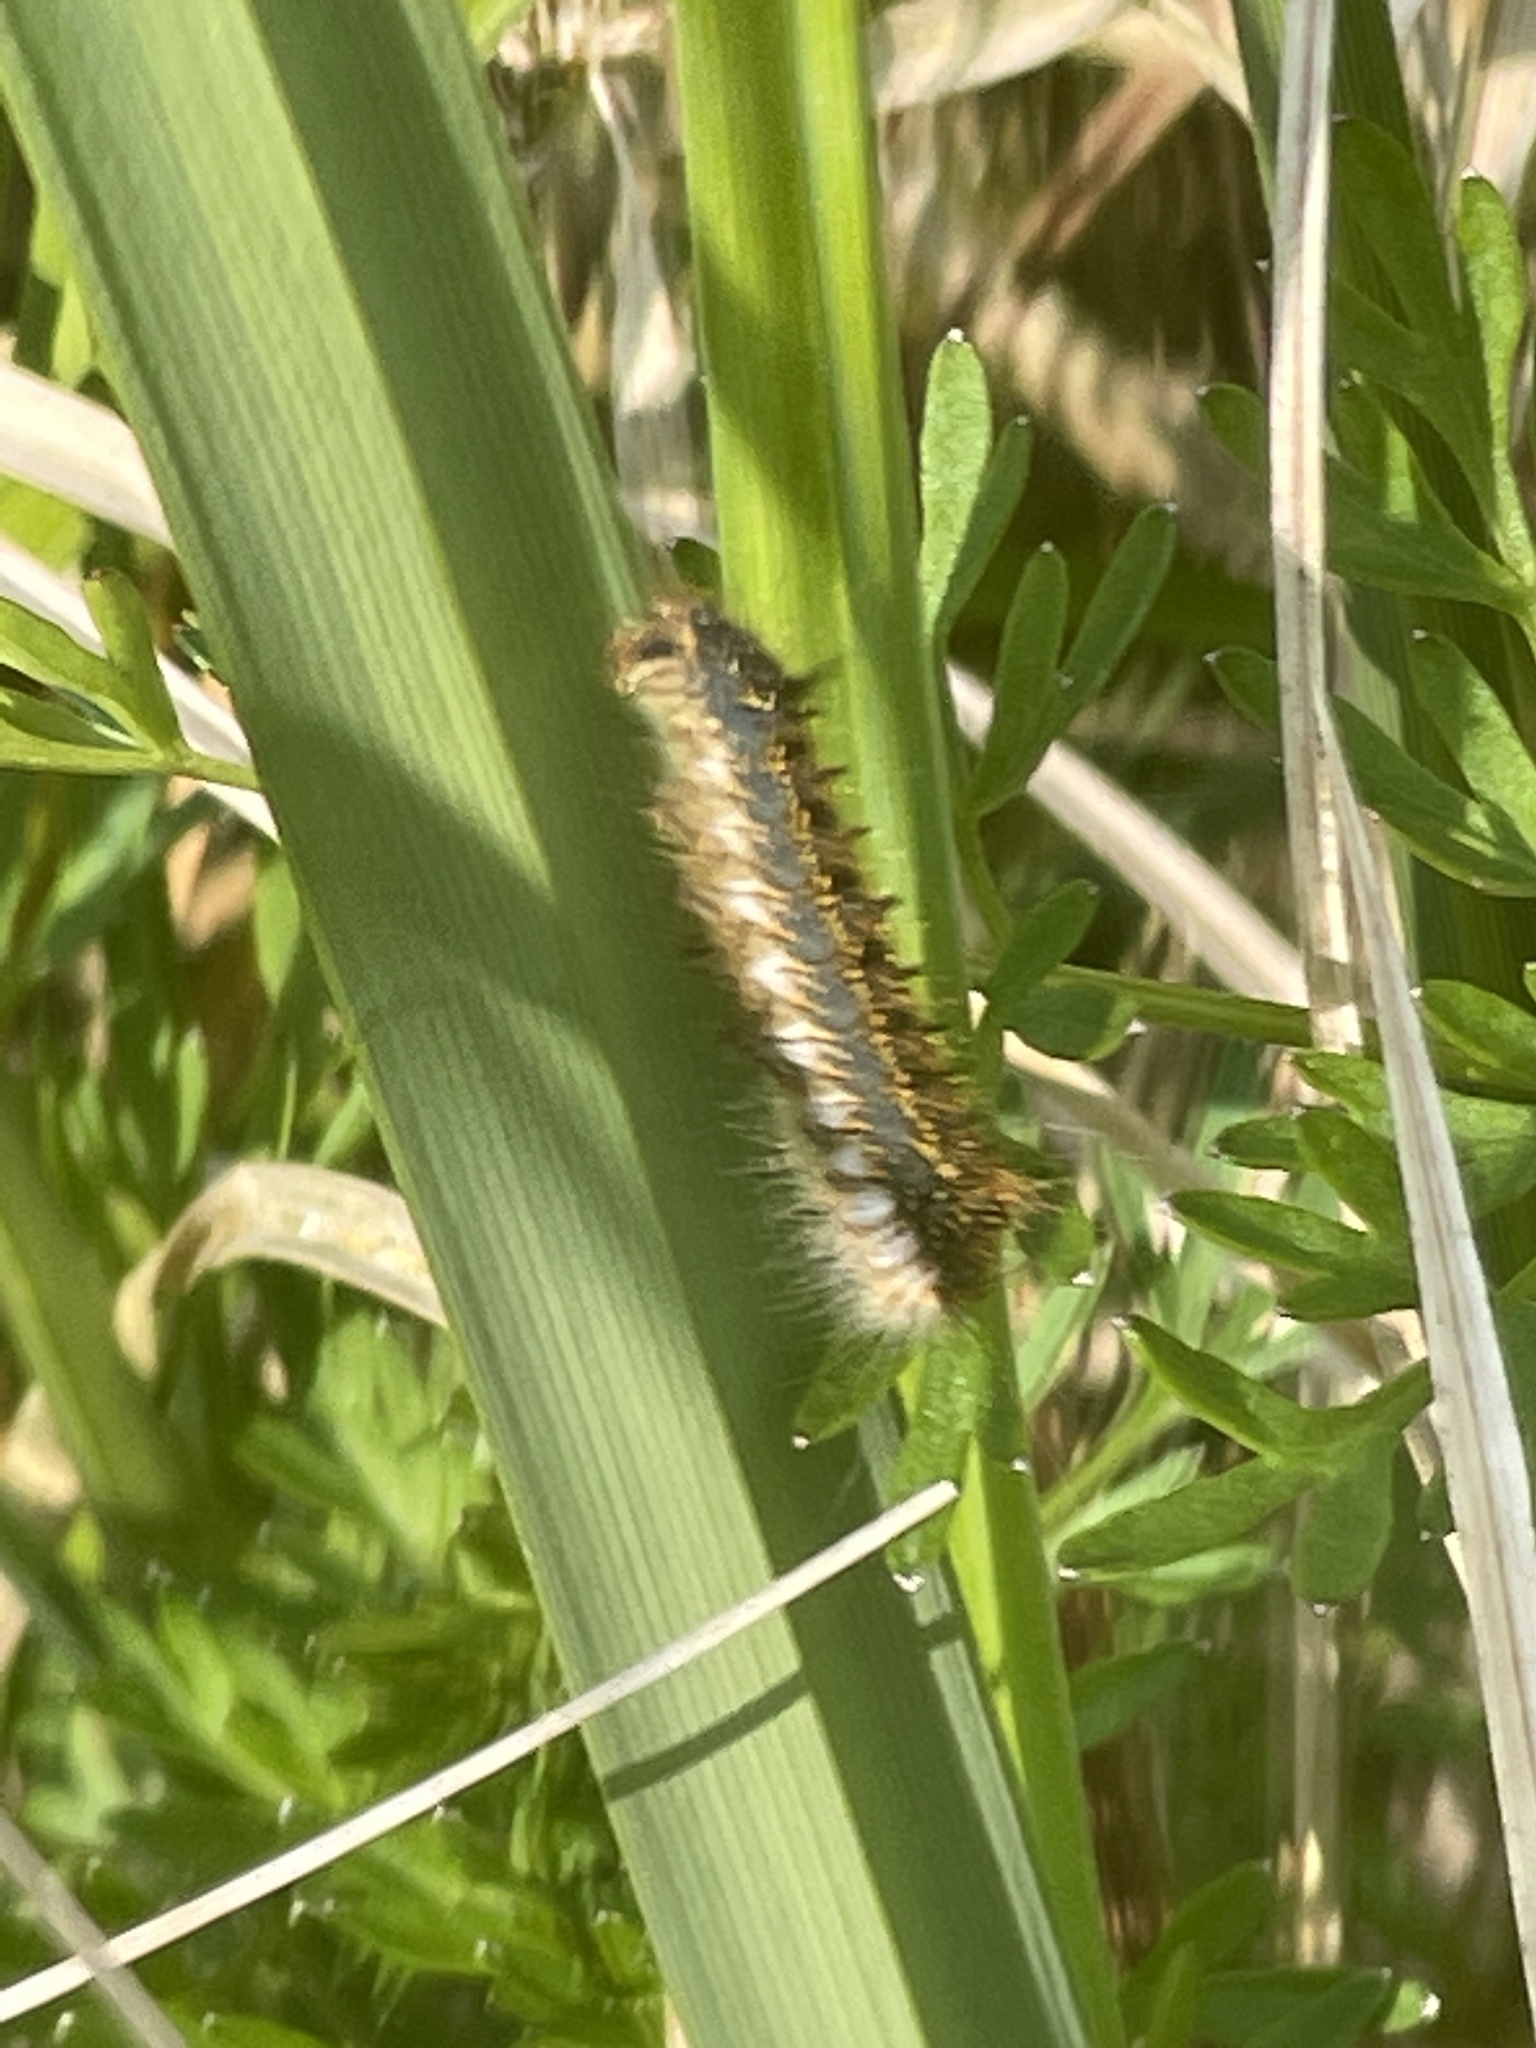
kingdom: Animalia
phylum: Arthropoda
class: Insecta
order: Lepidoptera
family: Lasiocampidae
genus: Euthrix
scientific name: Euthrix potatoria
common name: Drinker
